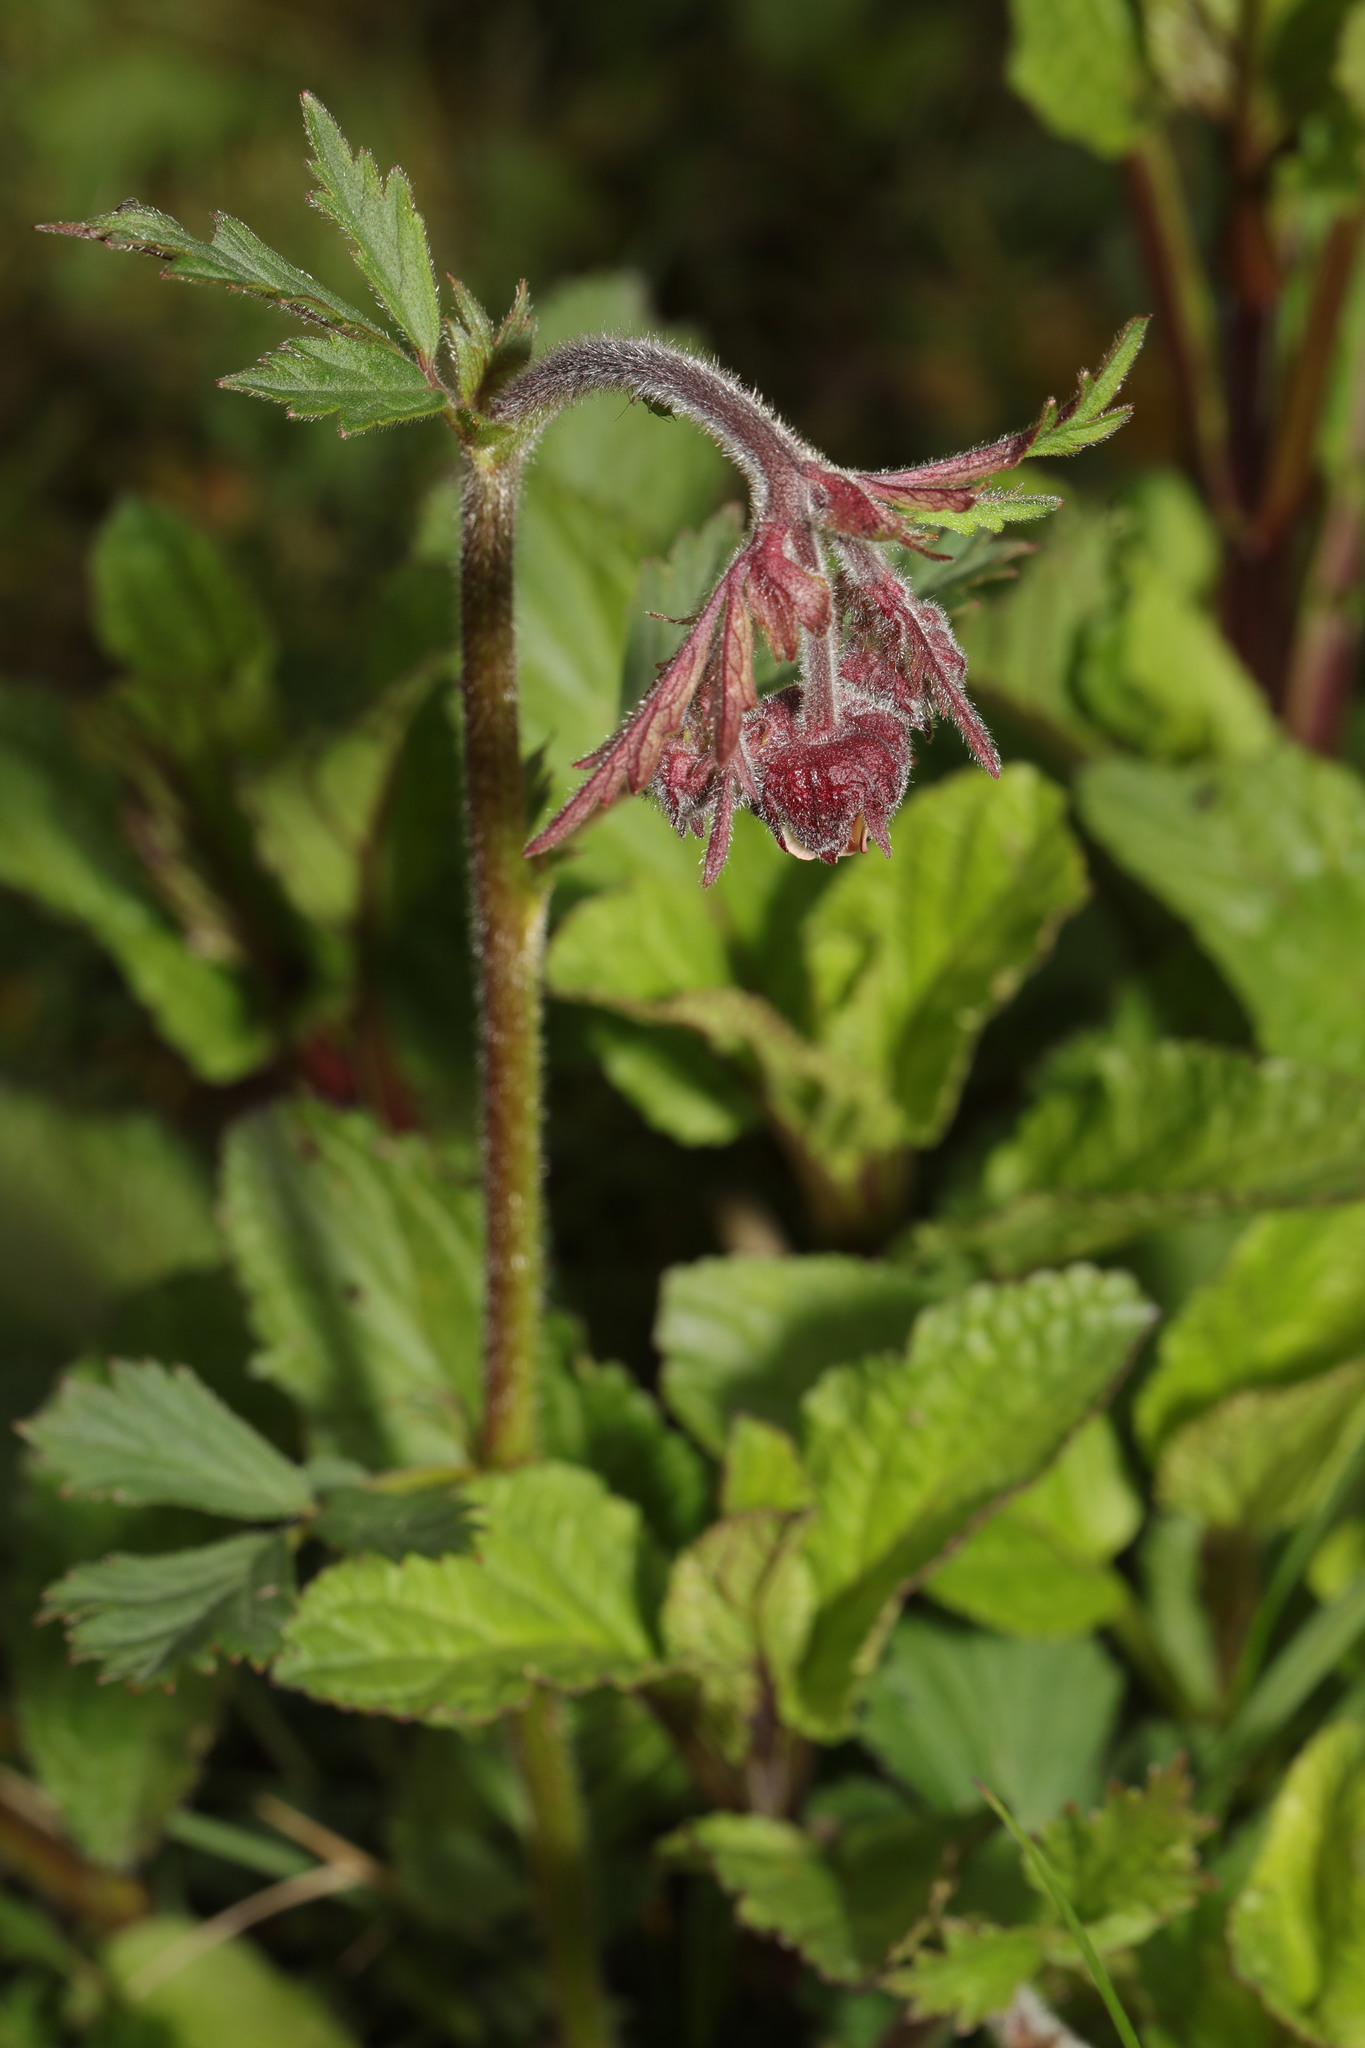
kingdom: Plantae
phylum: Tracheophyta
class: Magnoliopsida
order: Rosales
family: Rosaceae
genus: Geum
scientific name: Geum rivale
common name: Water avens
